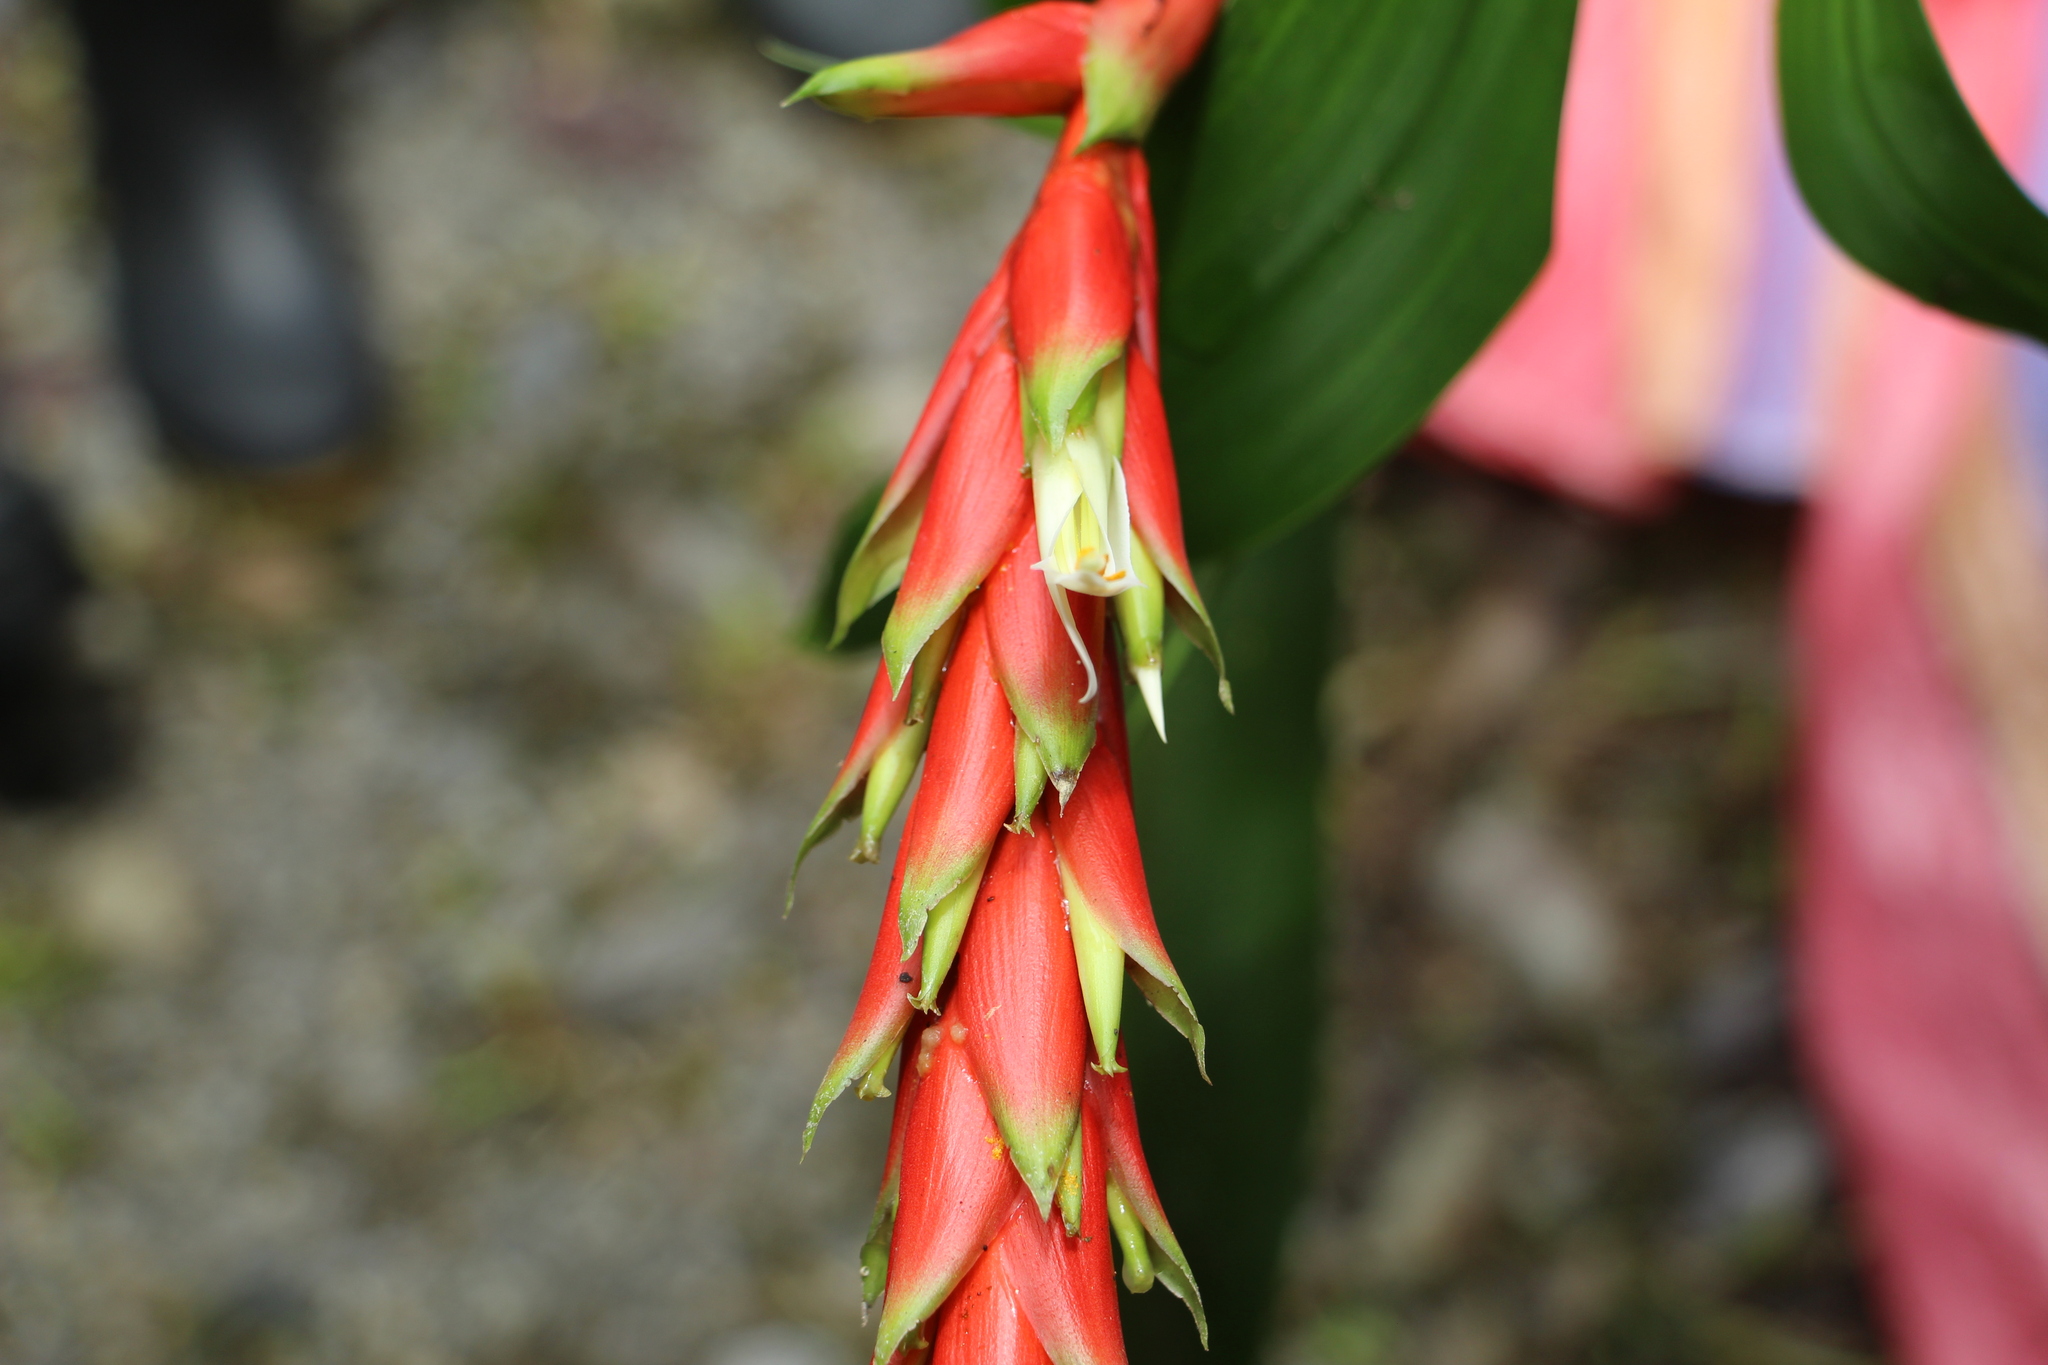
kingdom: Plantae
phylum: Tracheophyta
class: Liliopsida
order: Poales
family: Bromeliaceae
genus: Pitcairnia
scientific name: Pitcairnia maidifolia
